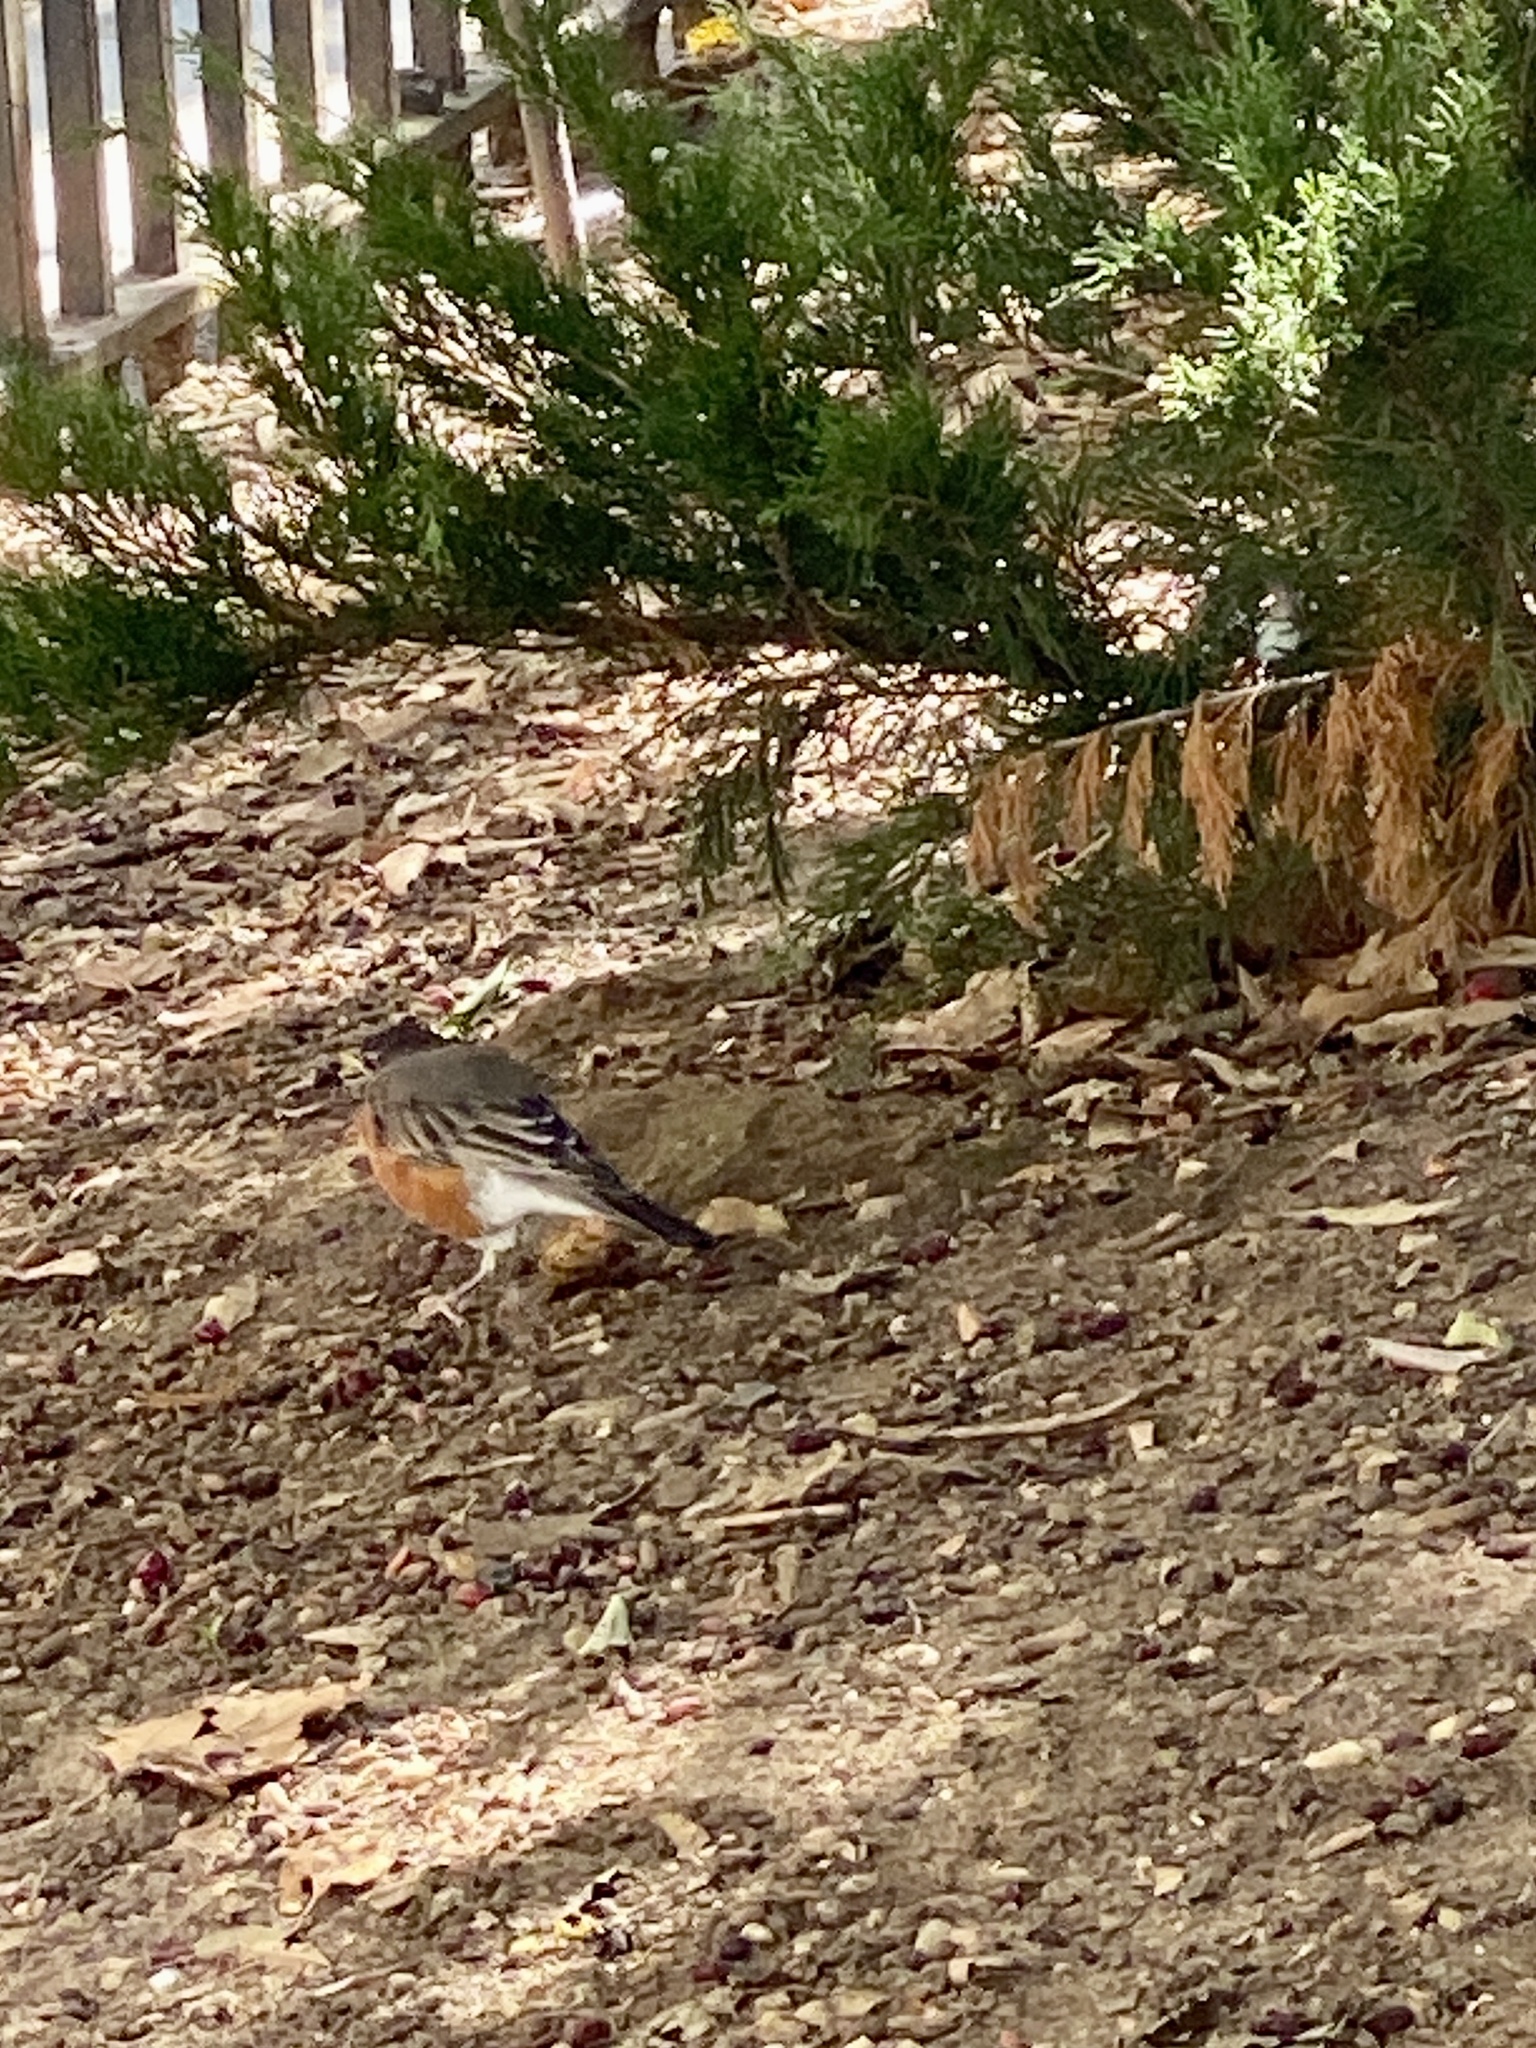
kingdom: Animalia
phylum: Chordata
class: Aves
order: Passeriformes
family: Turdidae
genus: Turdus
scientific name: Turdus migratorius
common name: American robin
